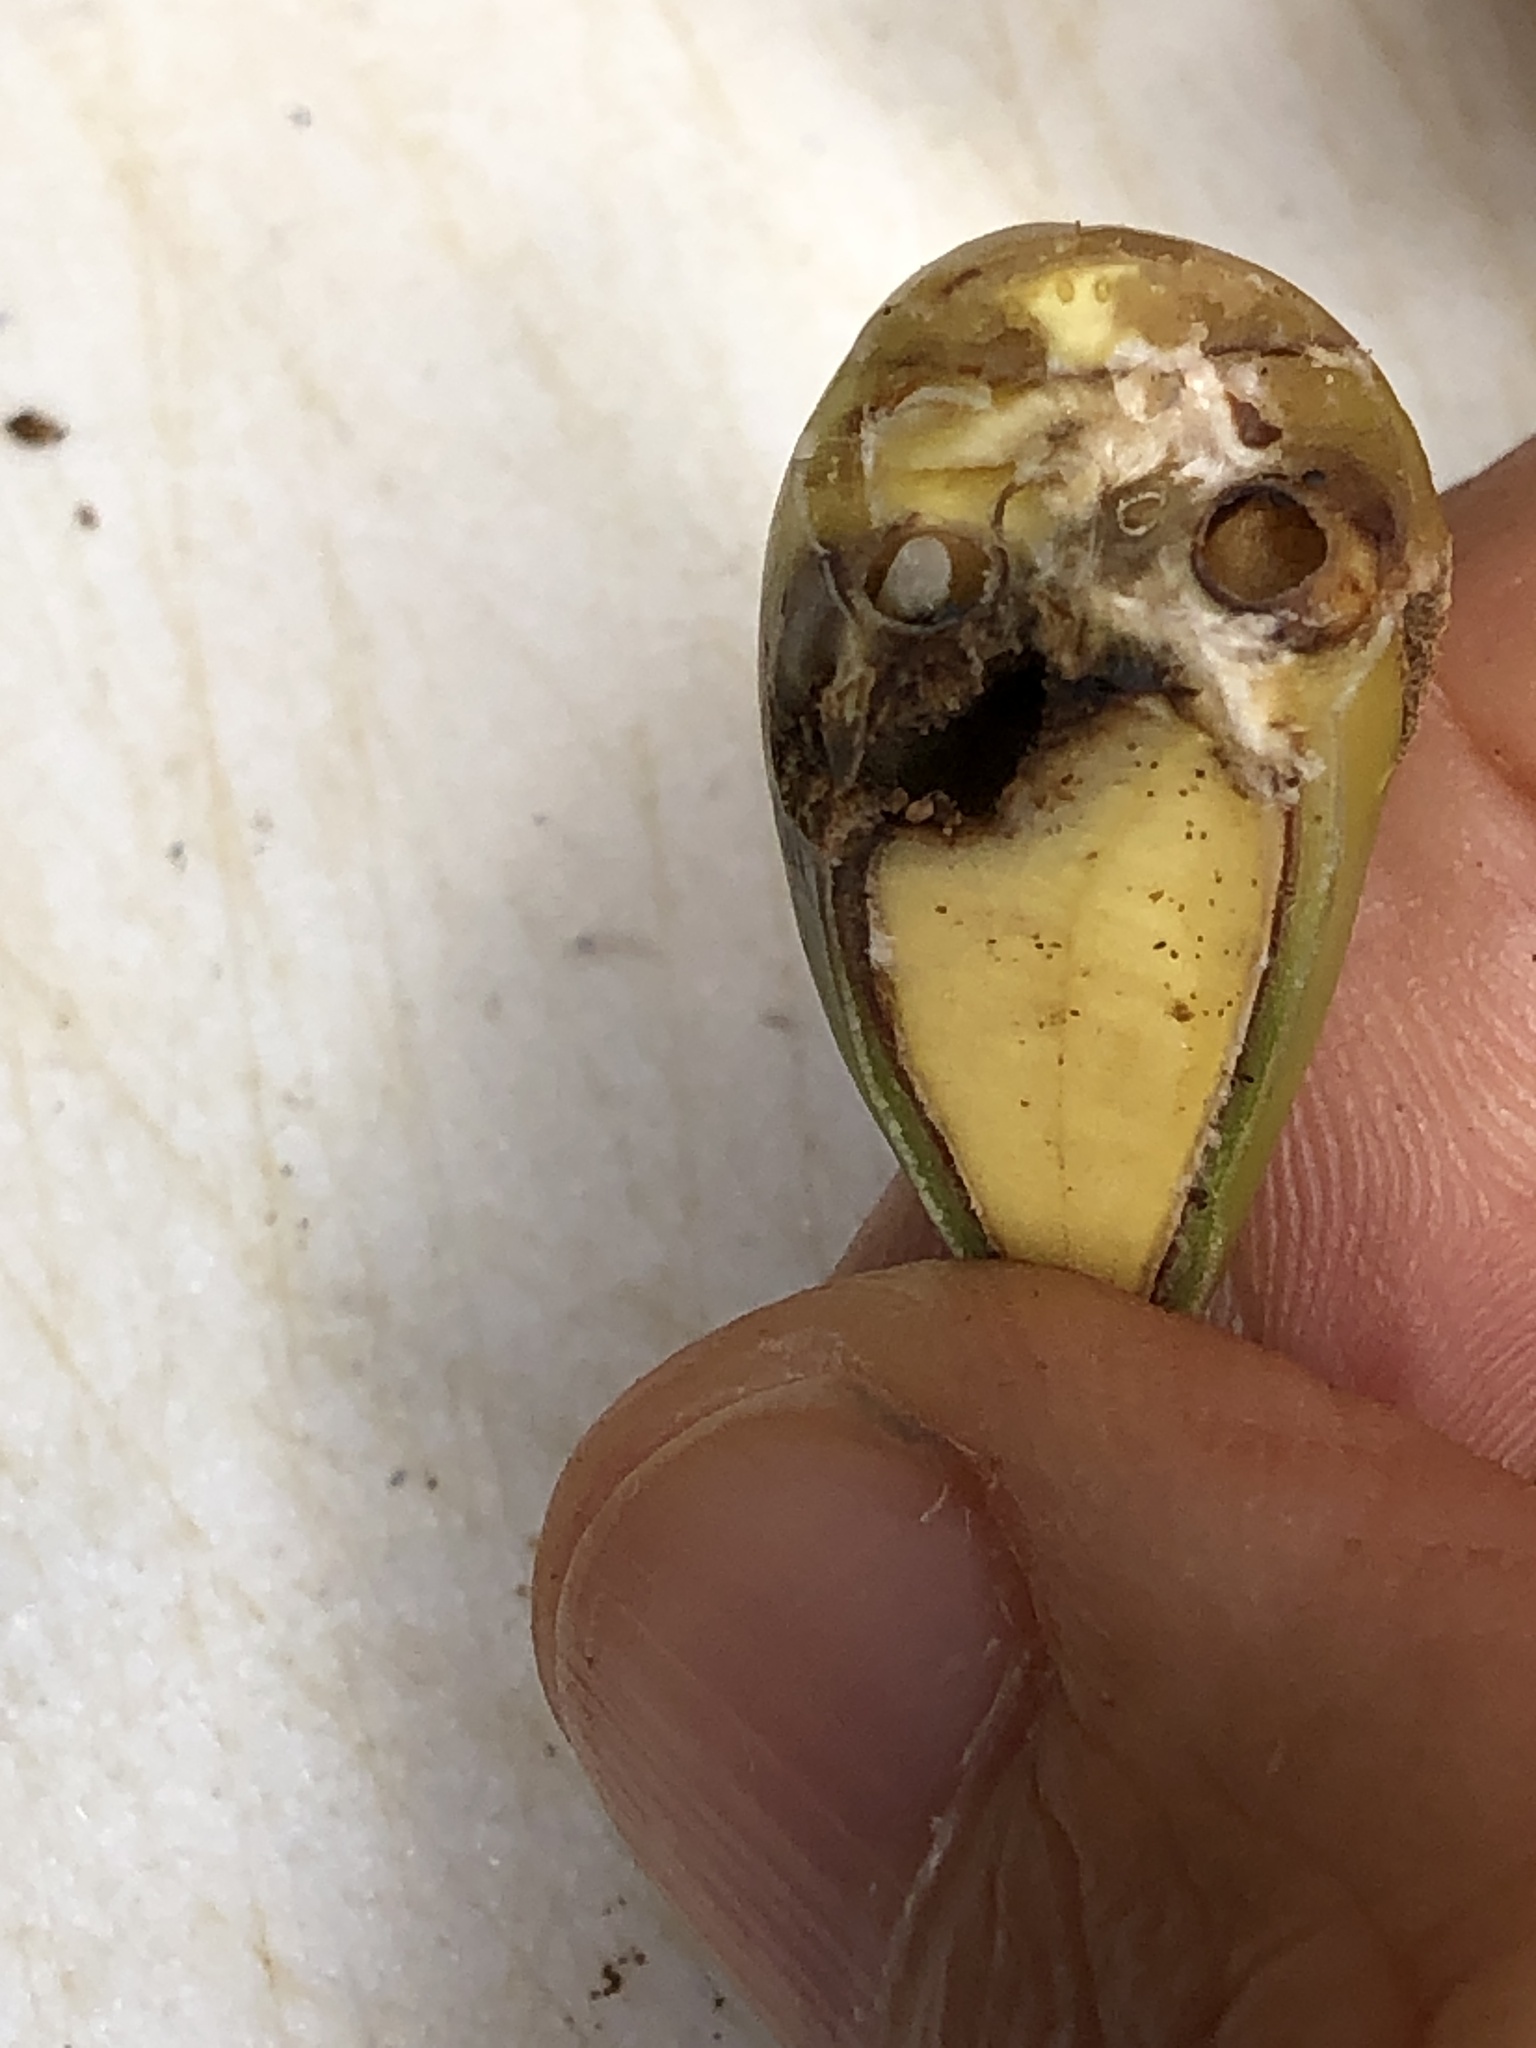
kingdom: Animalia
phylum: Arthropoda
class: Insecta
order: Hymenoptera
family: Cynipidae
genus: Callirhytis
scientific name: Callirhytis
